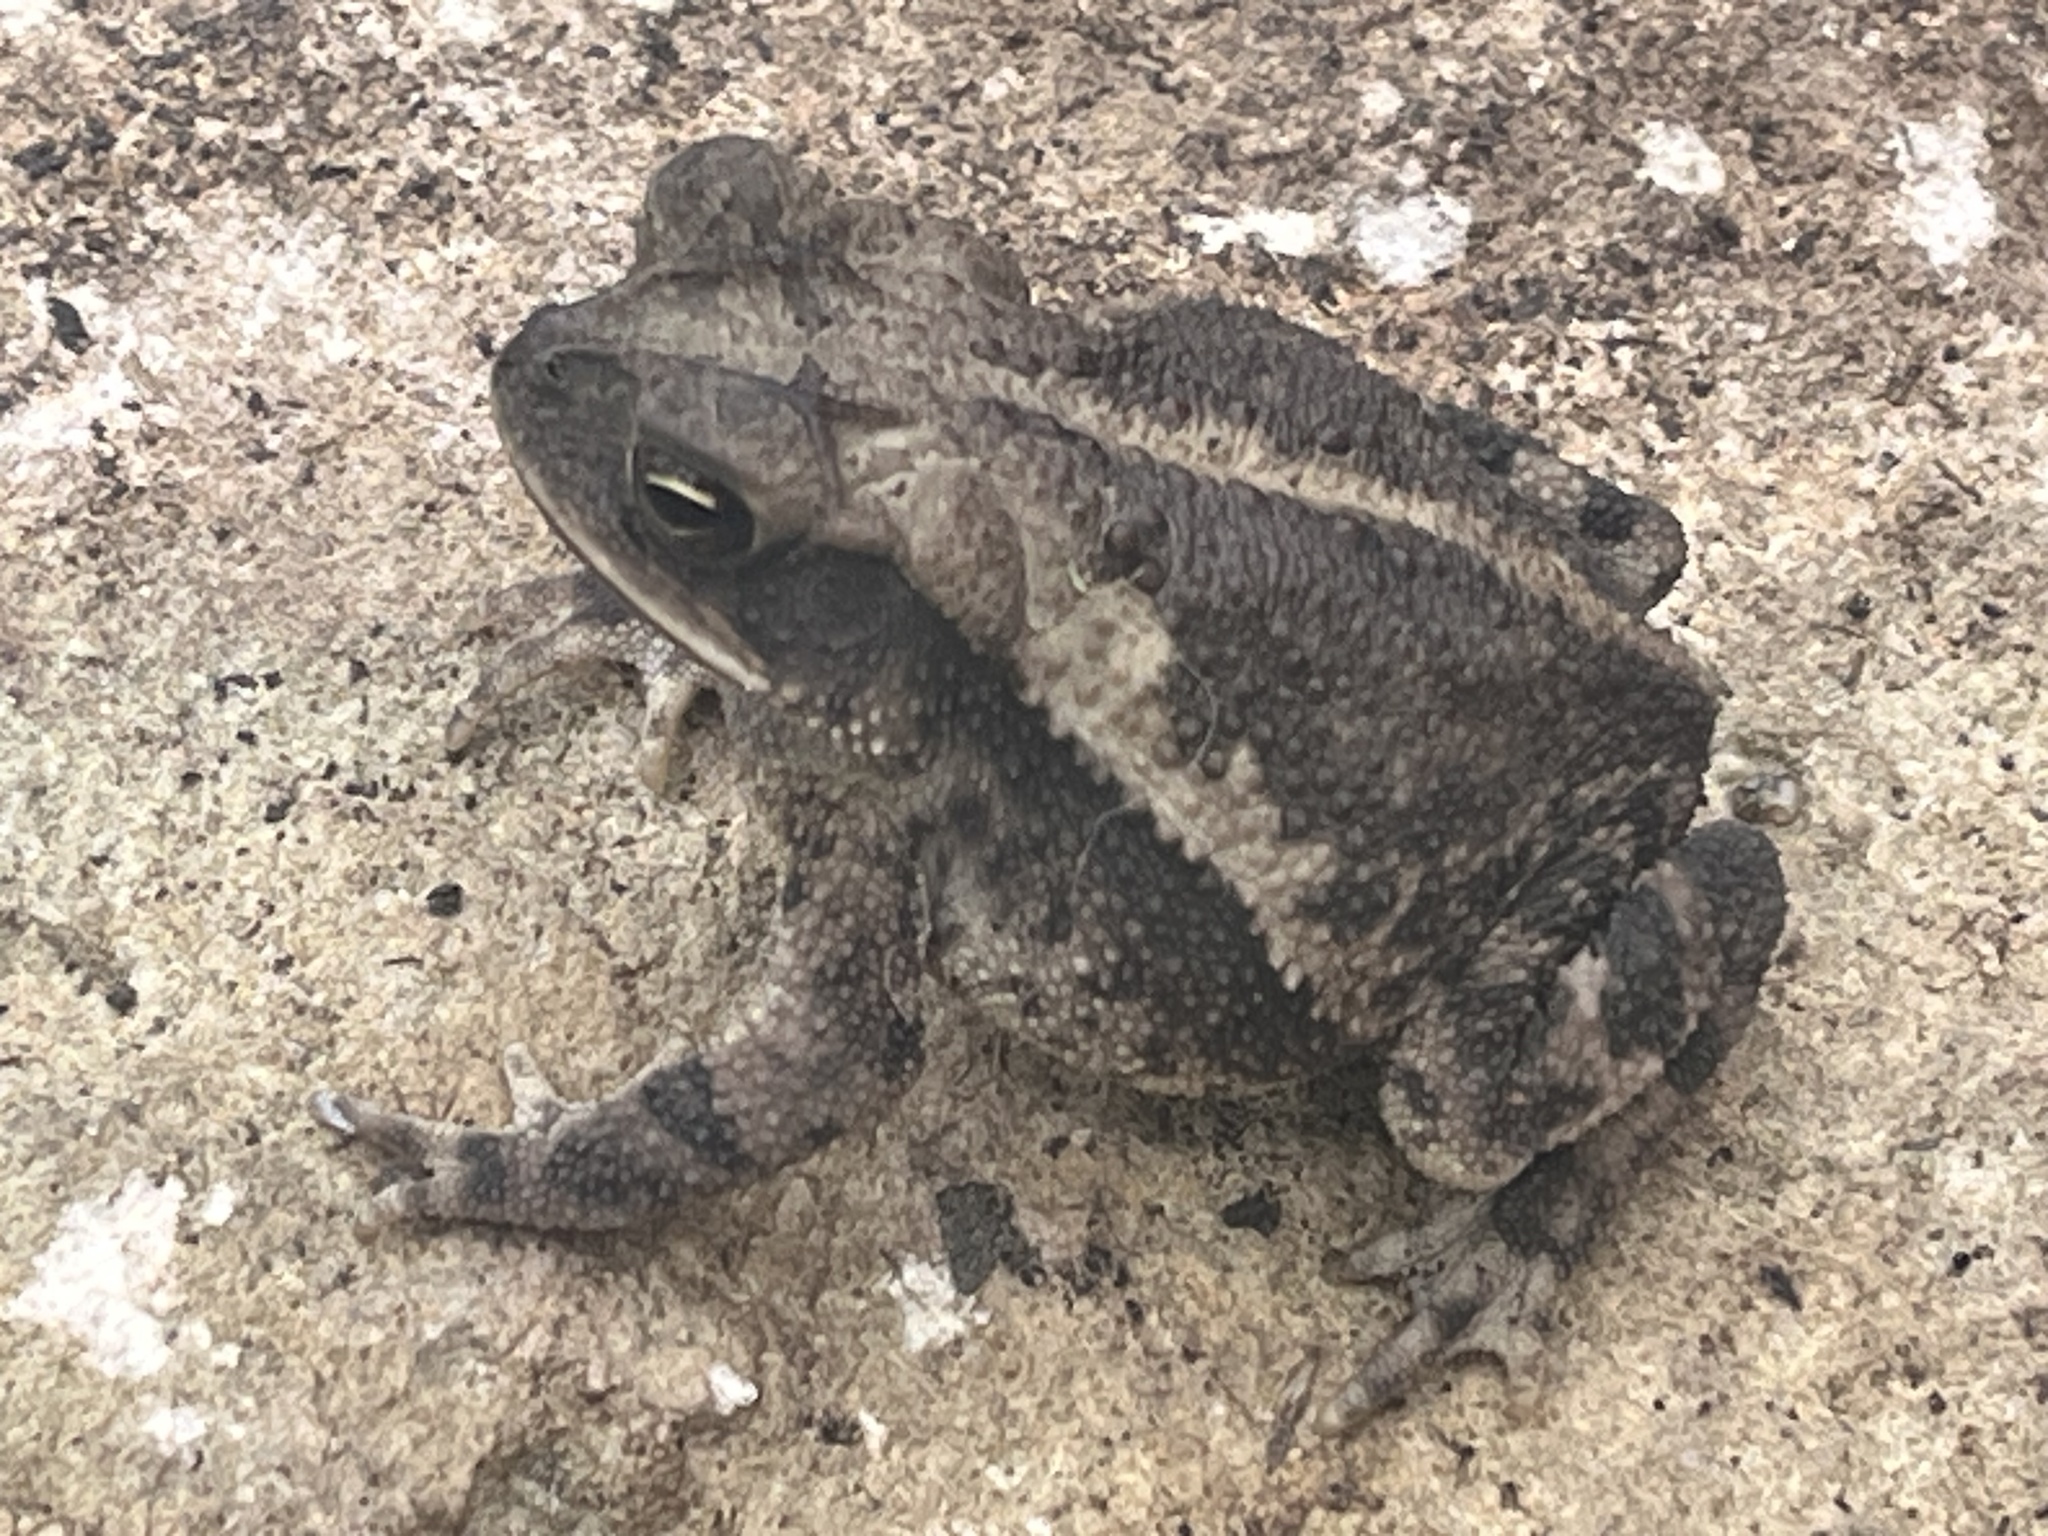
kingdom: Animalia
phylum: Chordata
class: Amphibia
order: Anura
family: Bufonidae
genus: Incilius
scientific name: Incilius nebulifer
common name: Gulf coast toad
